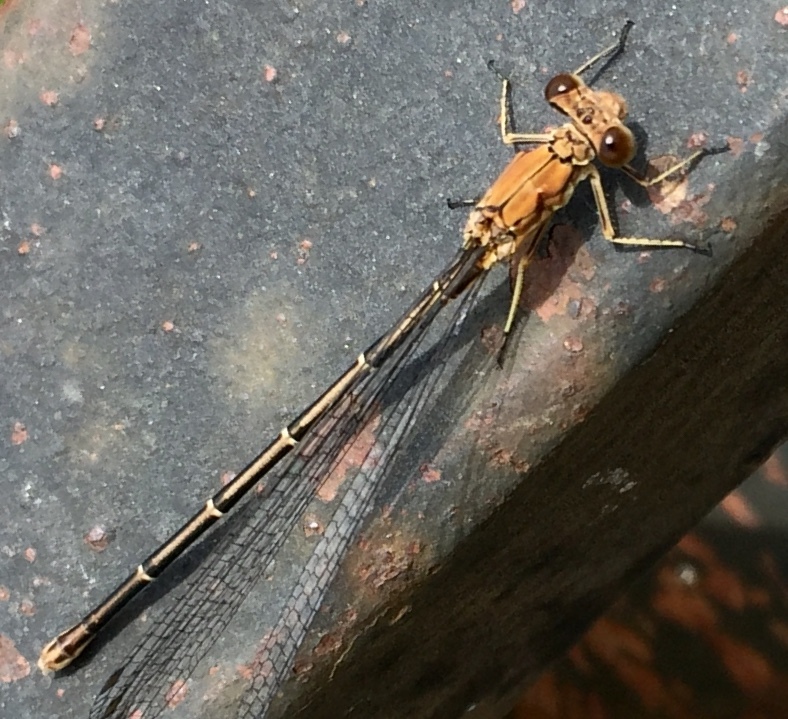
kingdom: Animalia
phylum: Arthropoda
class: Insecta
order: Odonata
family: Coenagrionidae
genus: Argia
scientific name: Argia moesta
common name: Powdered dancer
